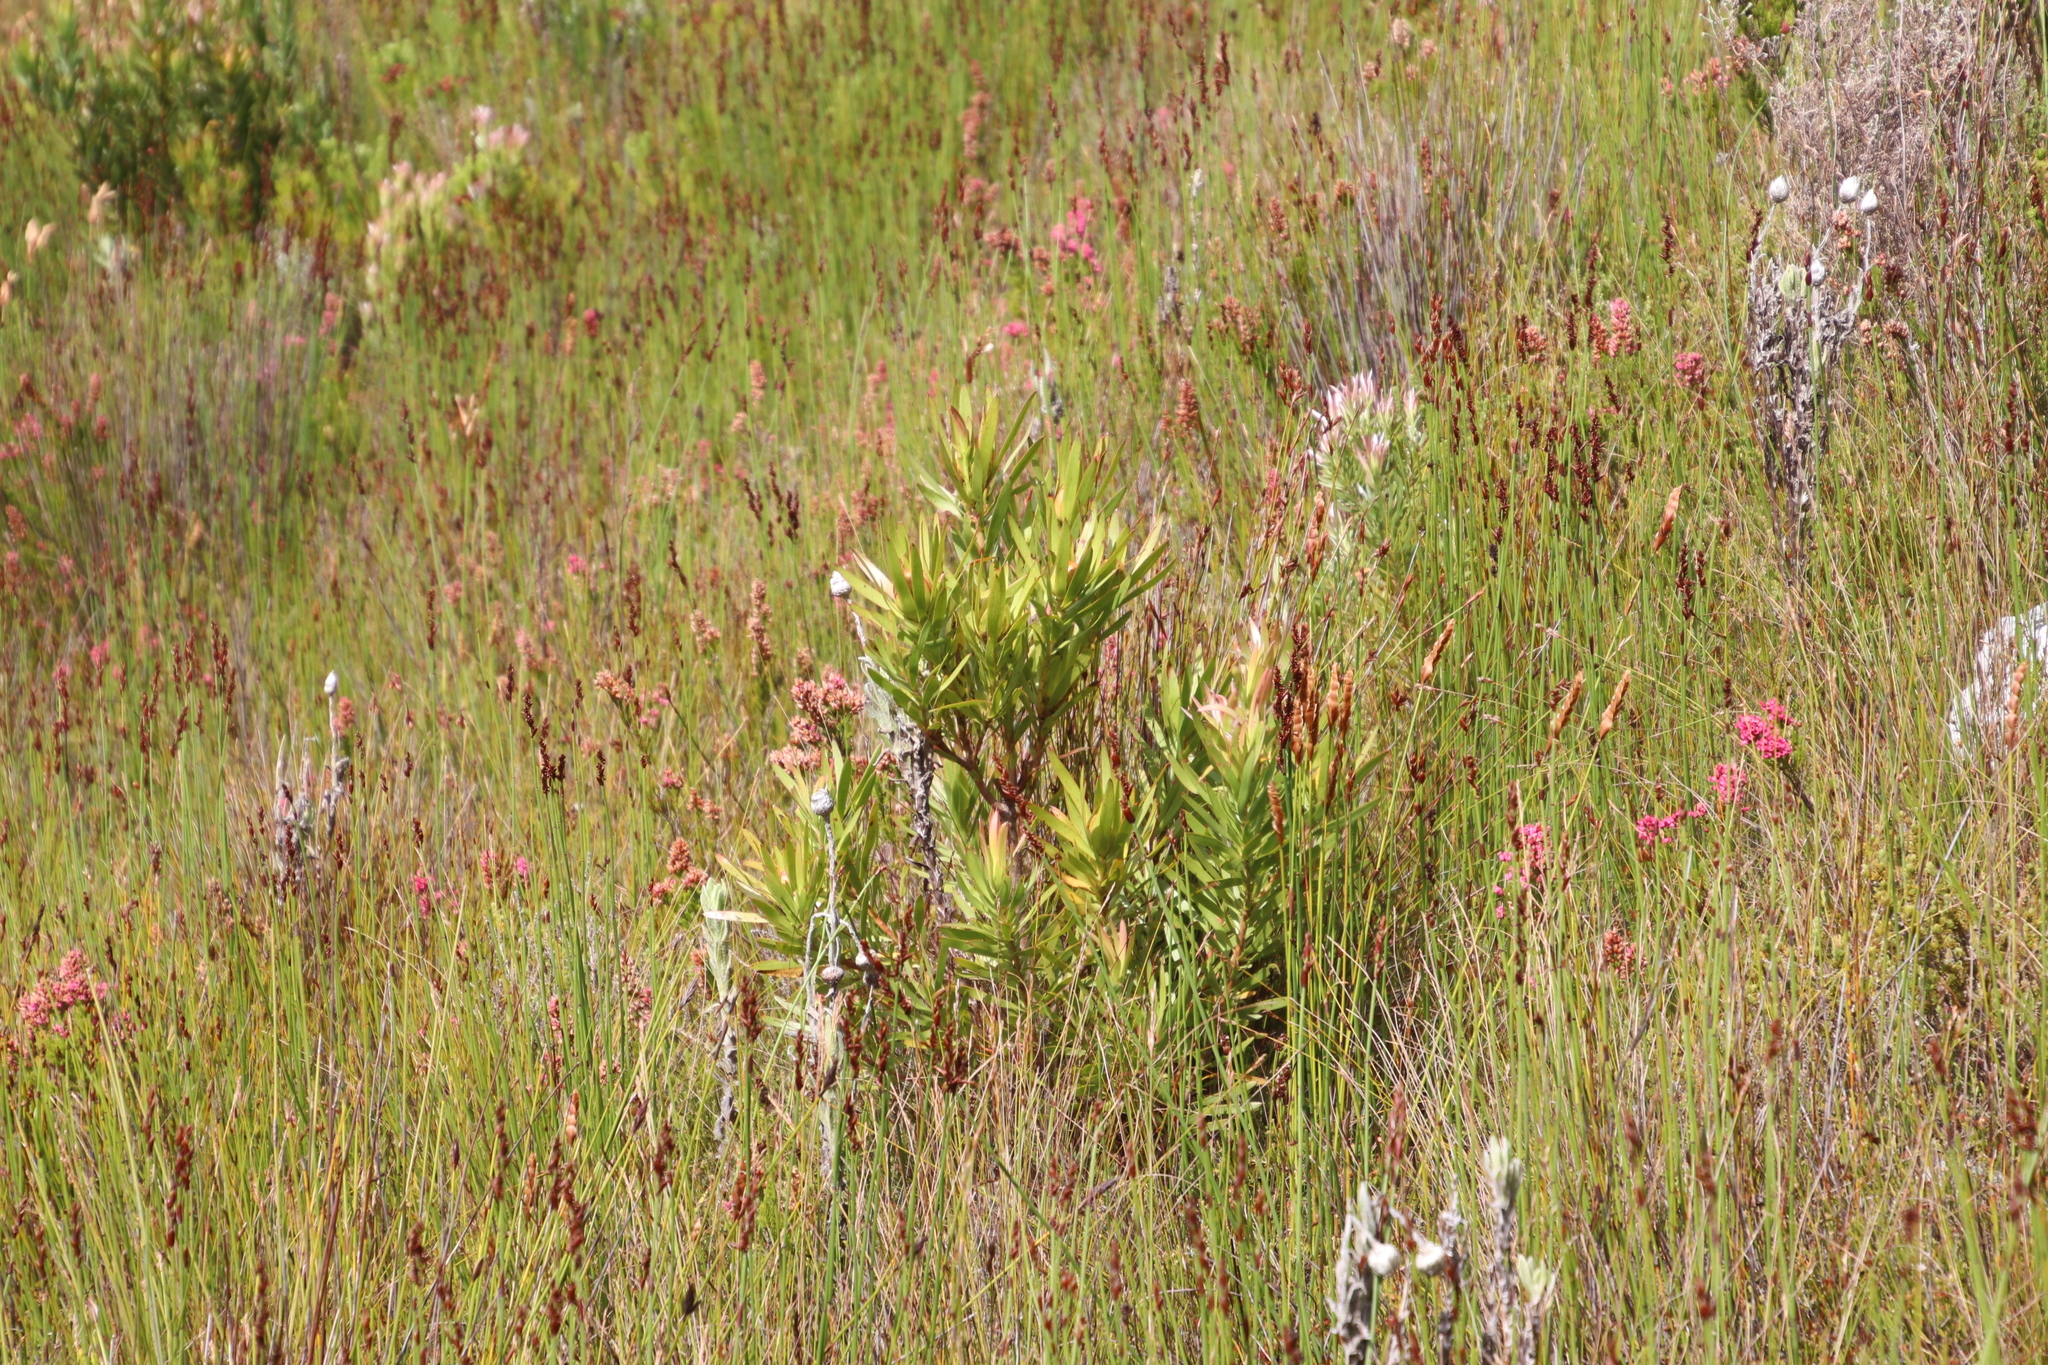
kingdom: Plantae
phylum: Tracheophyta
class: Magnoliopsida
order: Proteales
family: Proteaceae
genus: Leucadendron
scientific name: Leucadendron gandogeri
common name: Broad-leaf conebush
